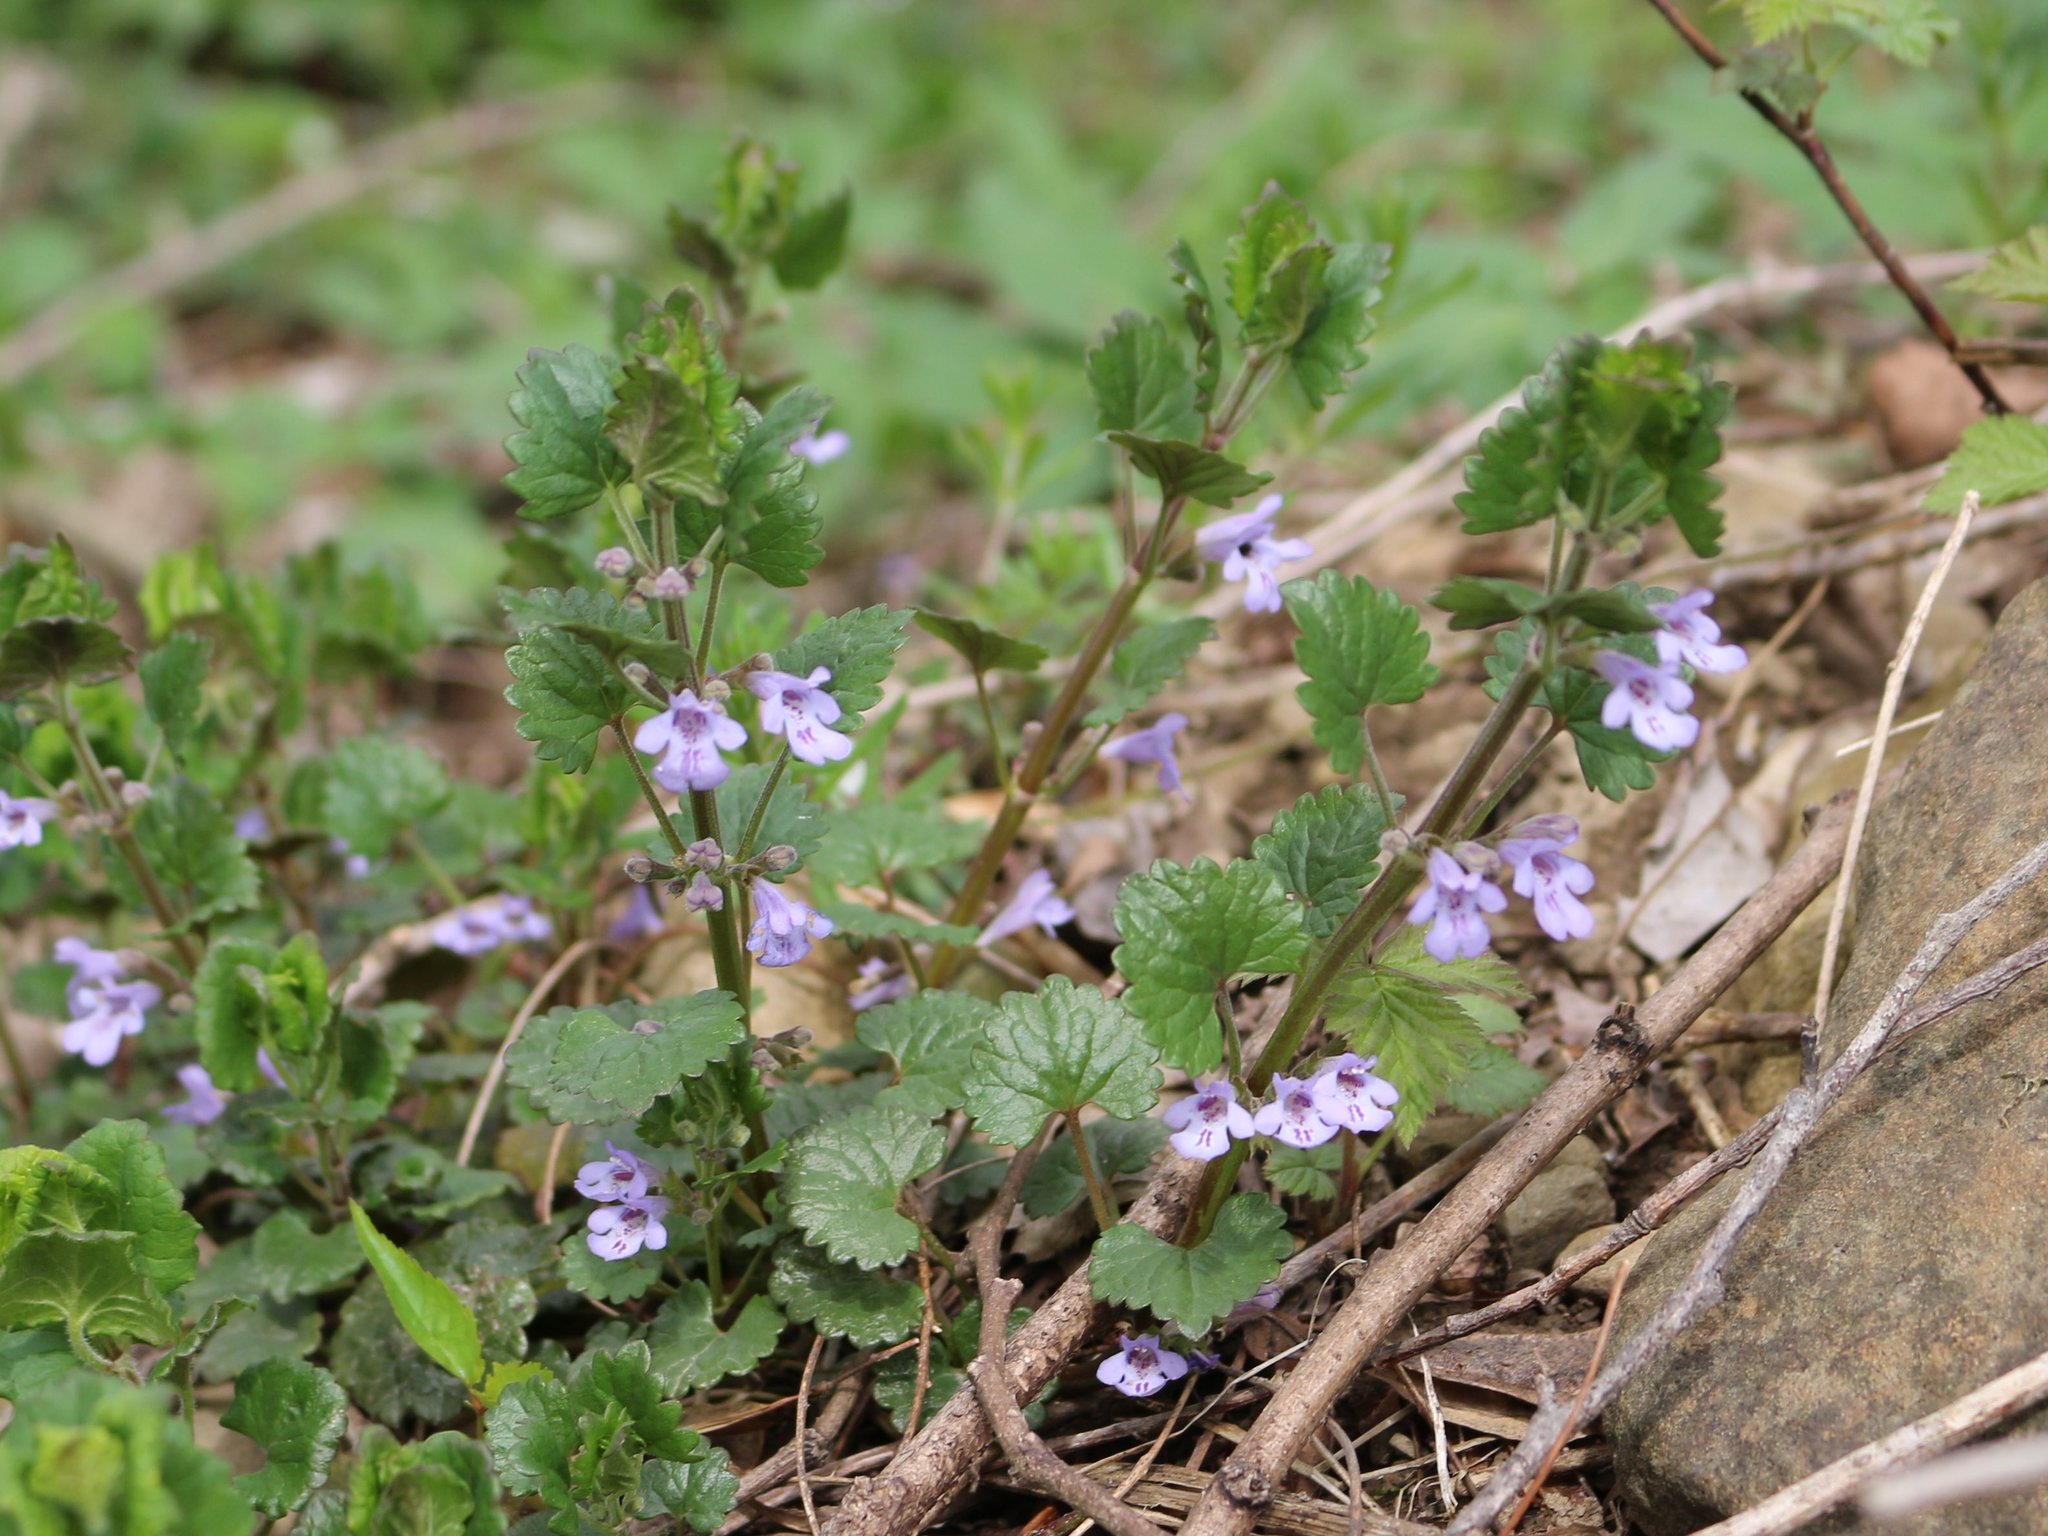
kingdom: Plantae
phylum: Tracheophyta
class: Magnoliopsida
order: Lamiales
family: Lamiaceae
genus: Glechoma
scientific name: Glechoma hederacea
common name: Ground ivy
